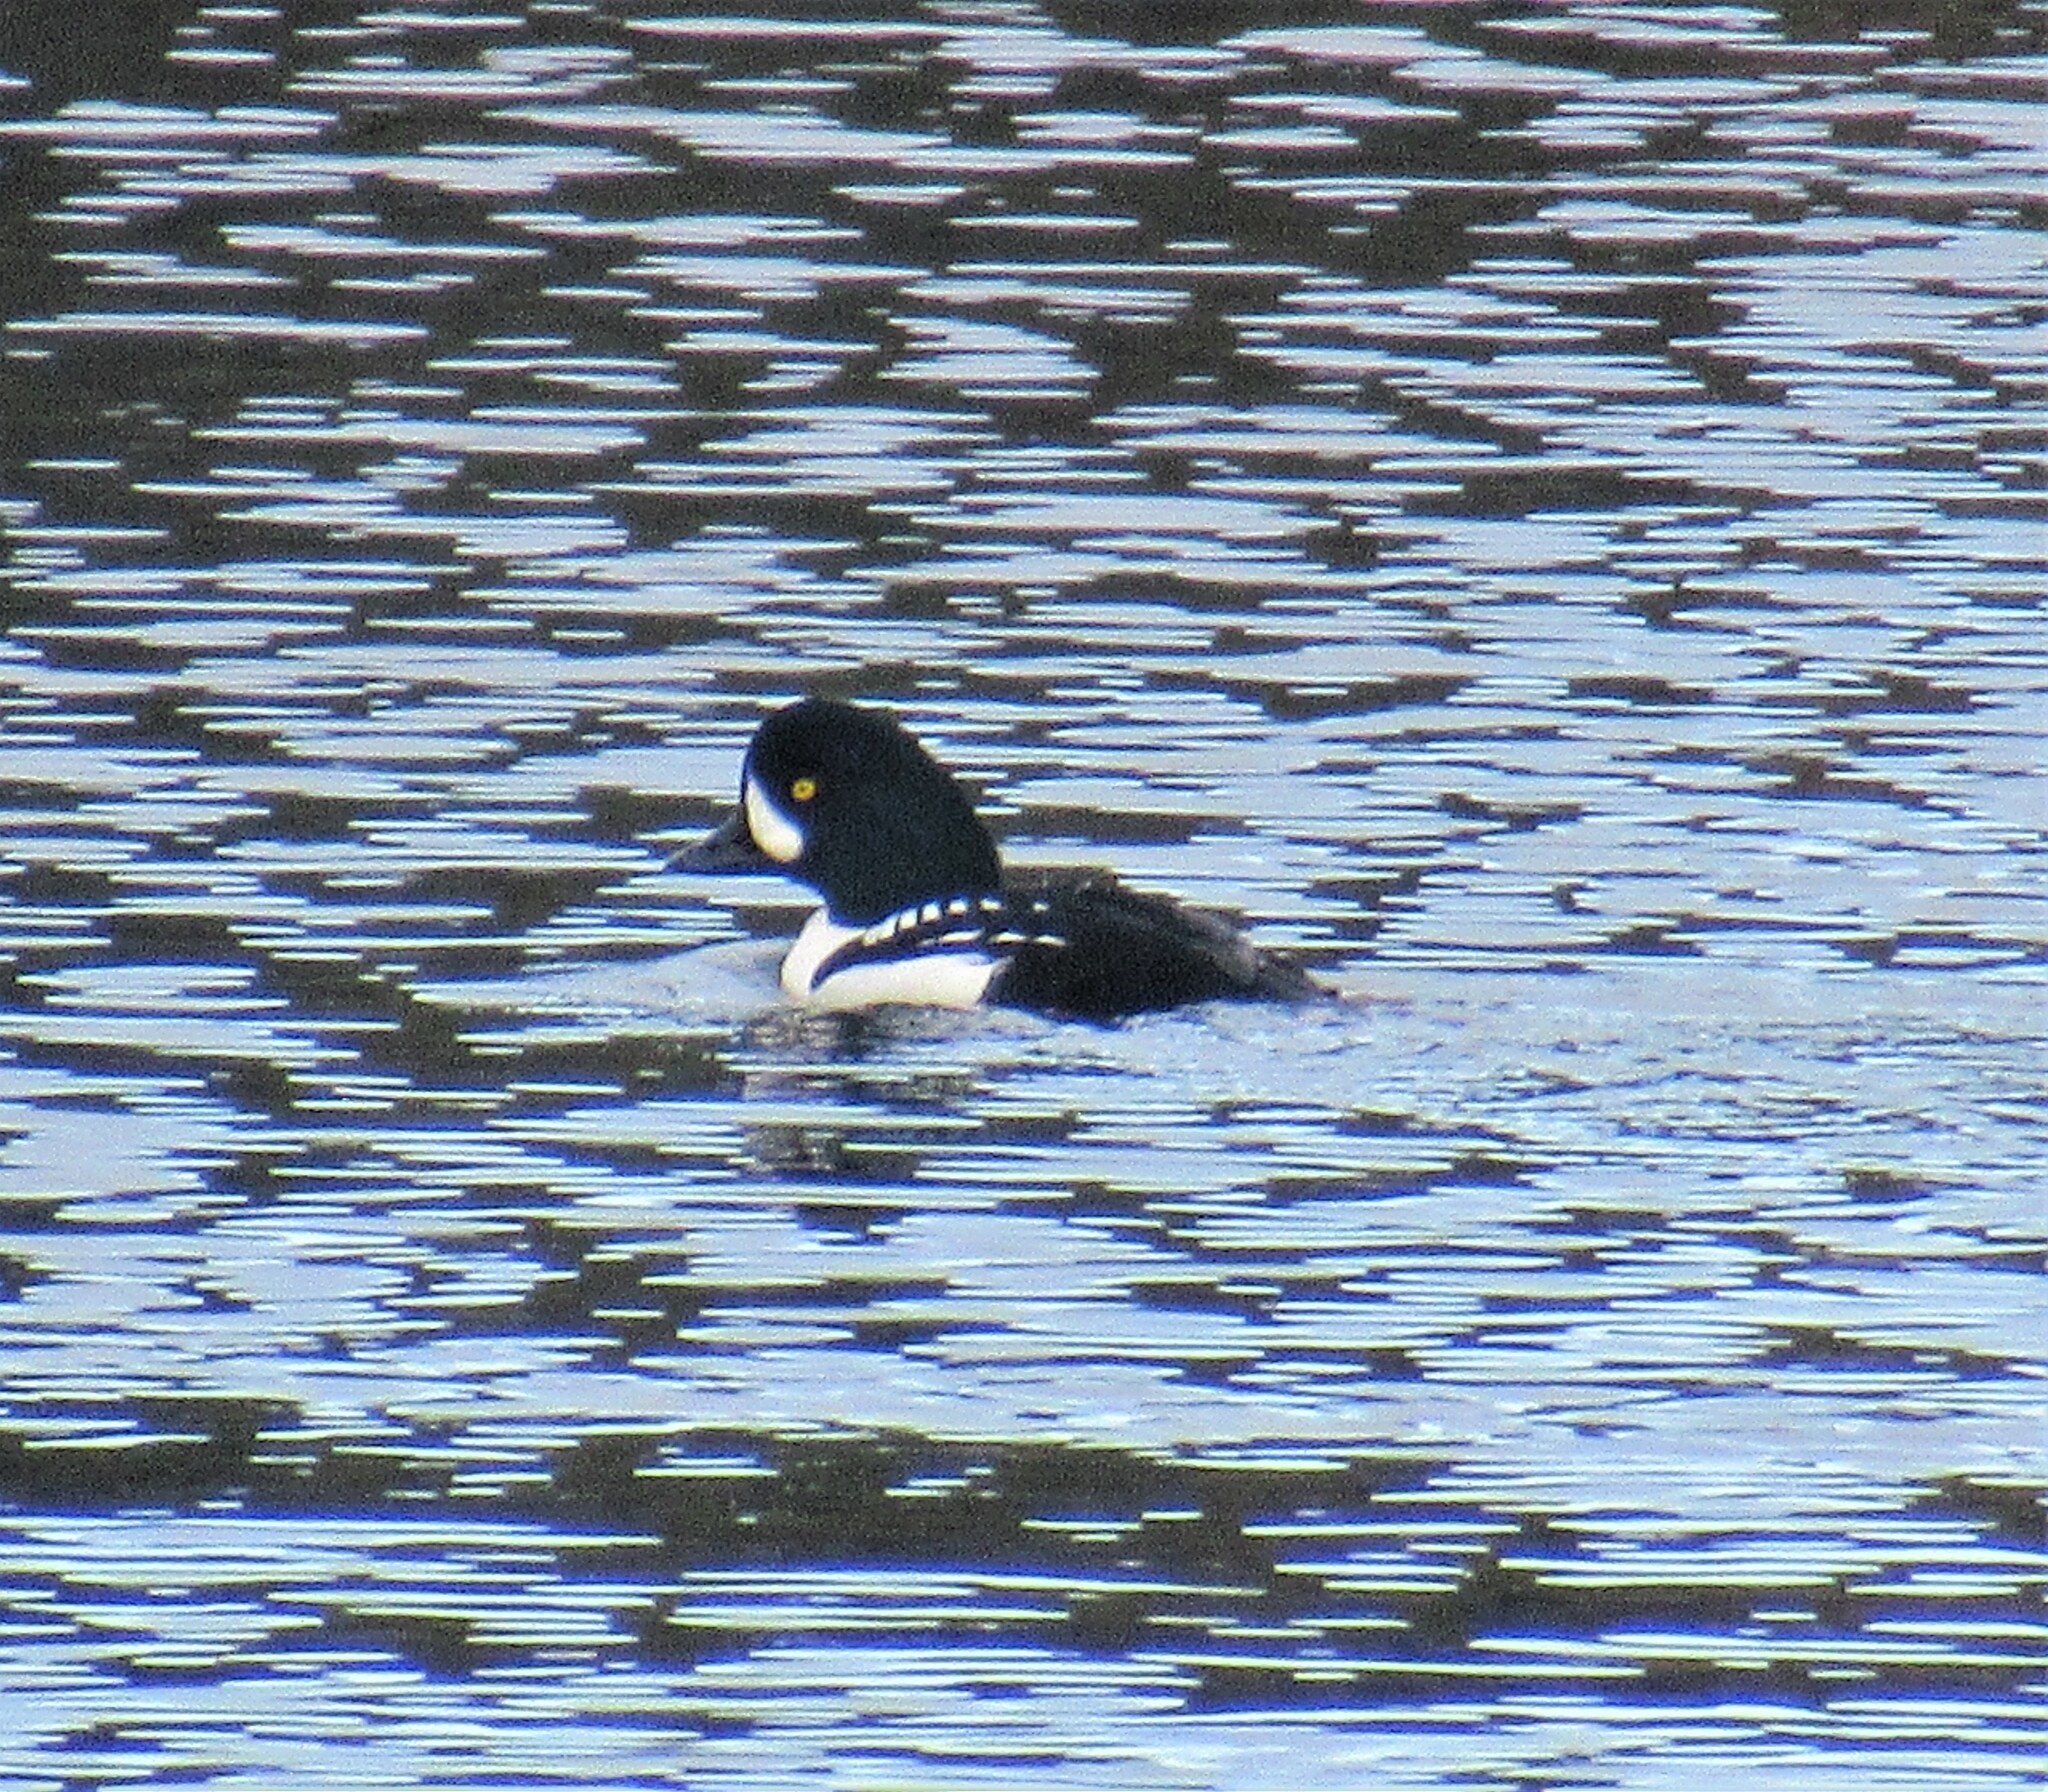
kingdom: Animalia
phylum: Chordata
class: Aves
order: Anseriformes
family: Anatidae
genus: Bucephala
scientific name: Bucephala islandica
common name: Barrow's goldeneye
